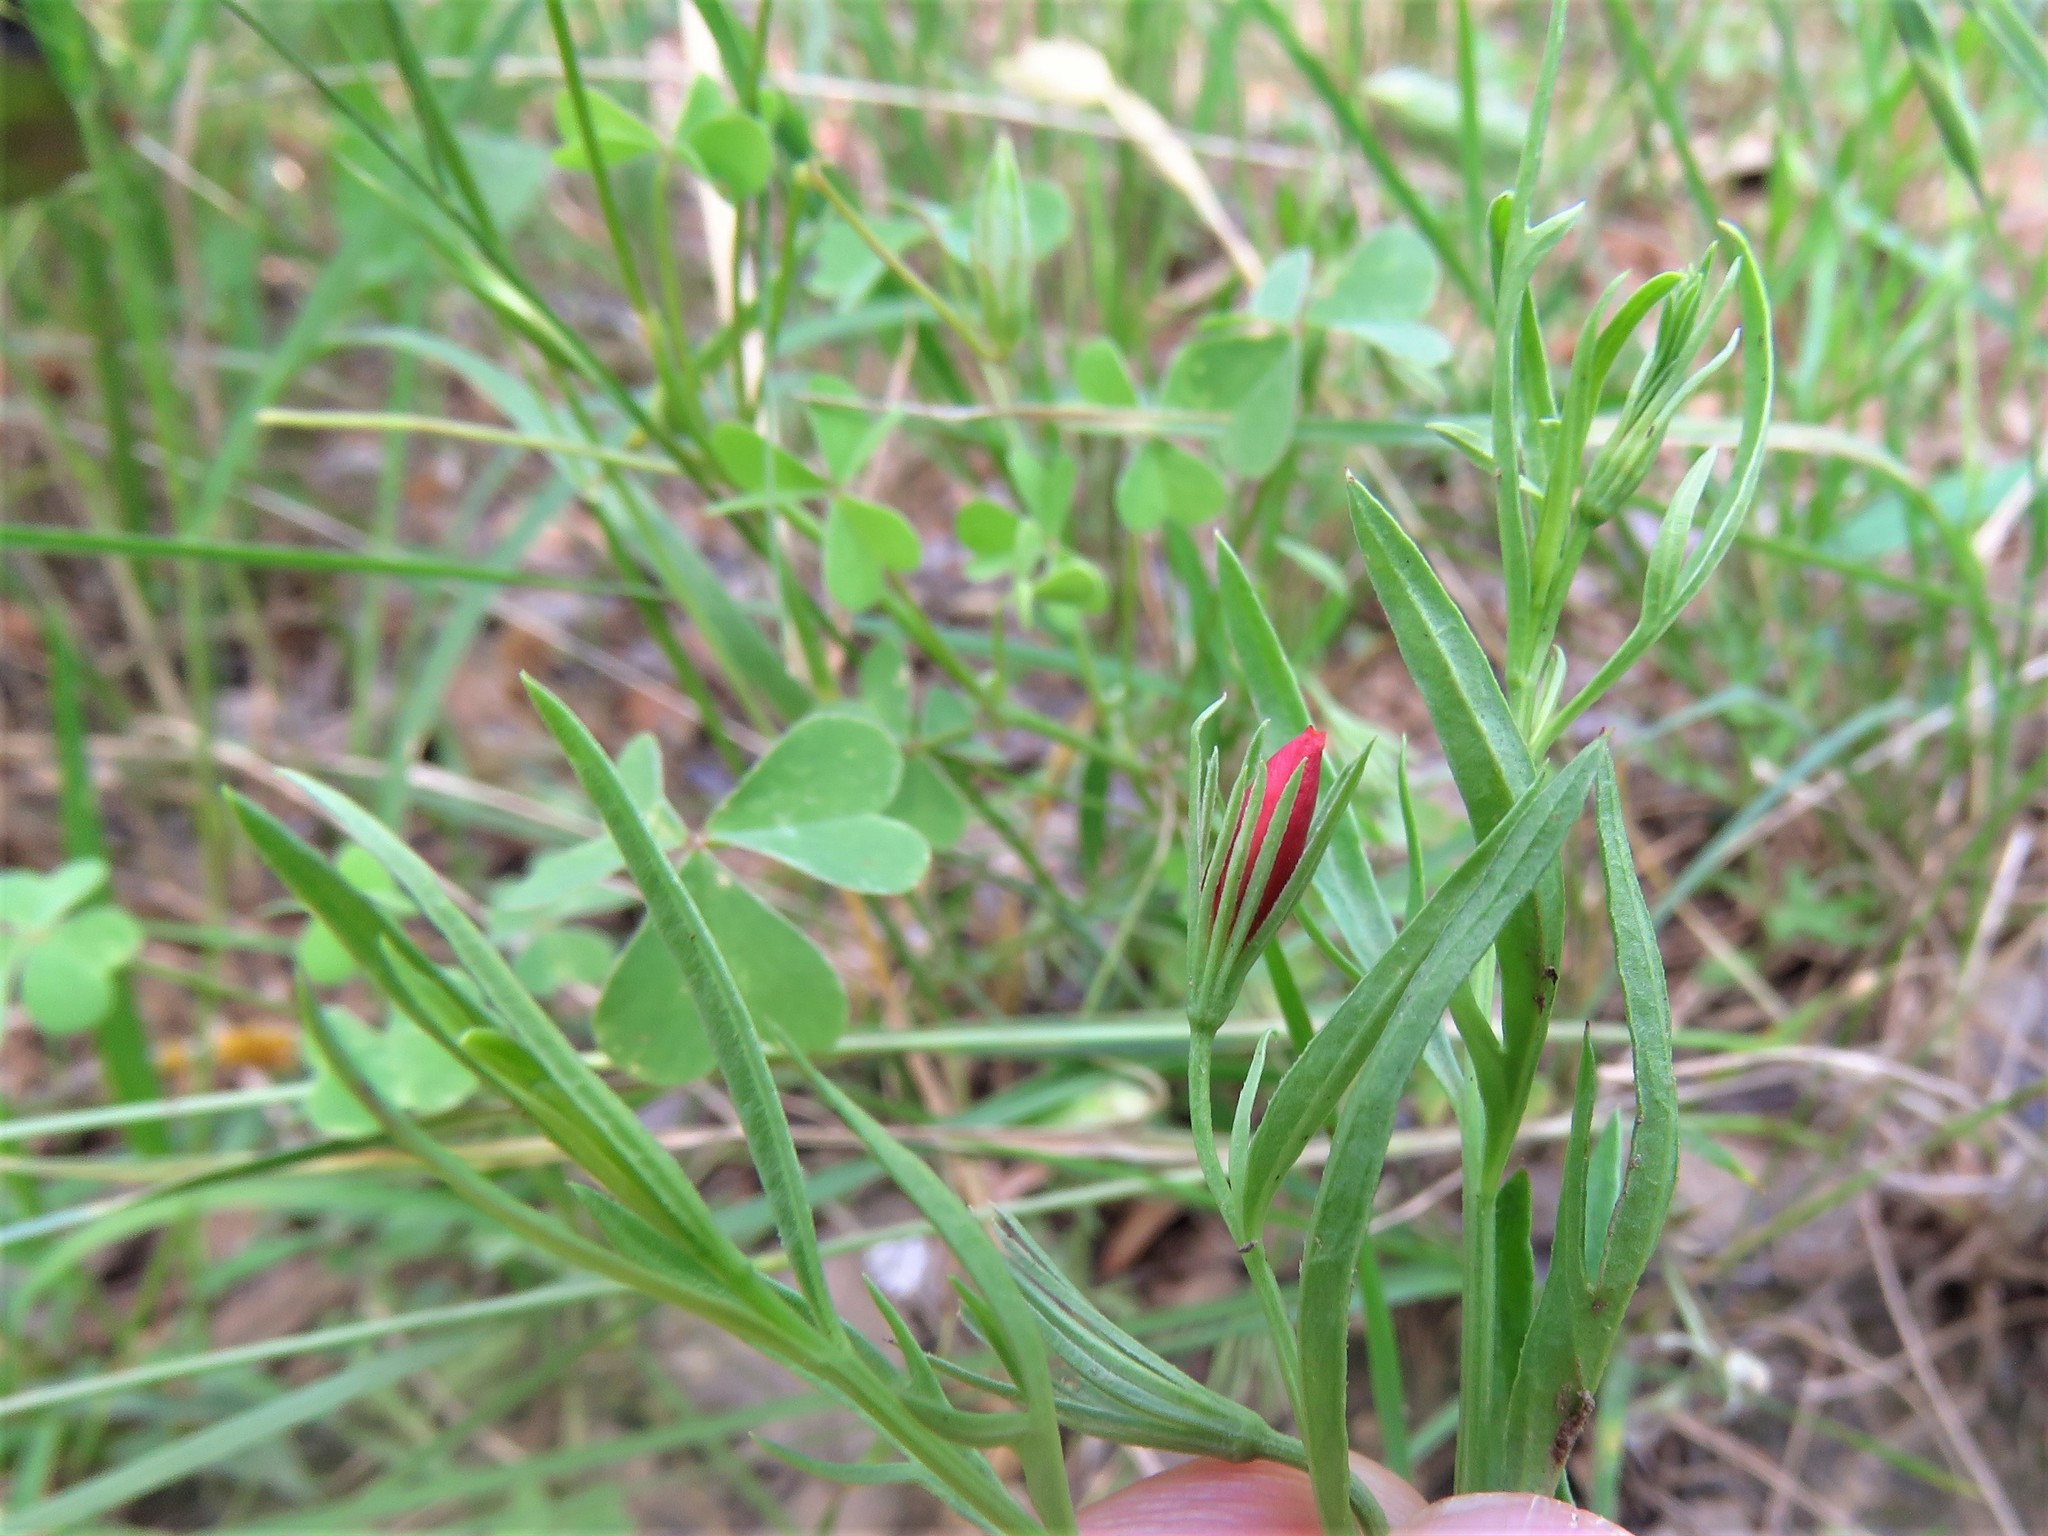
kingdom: Plantae
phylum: Tracheophyta
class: Magnoliopsida
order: Lamiales
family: Oleaceae
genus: Menodora
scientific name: Menodora heterophylla
